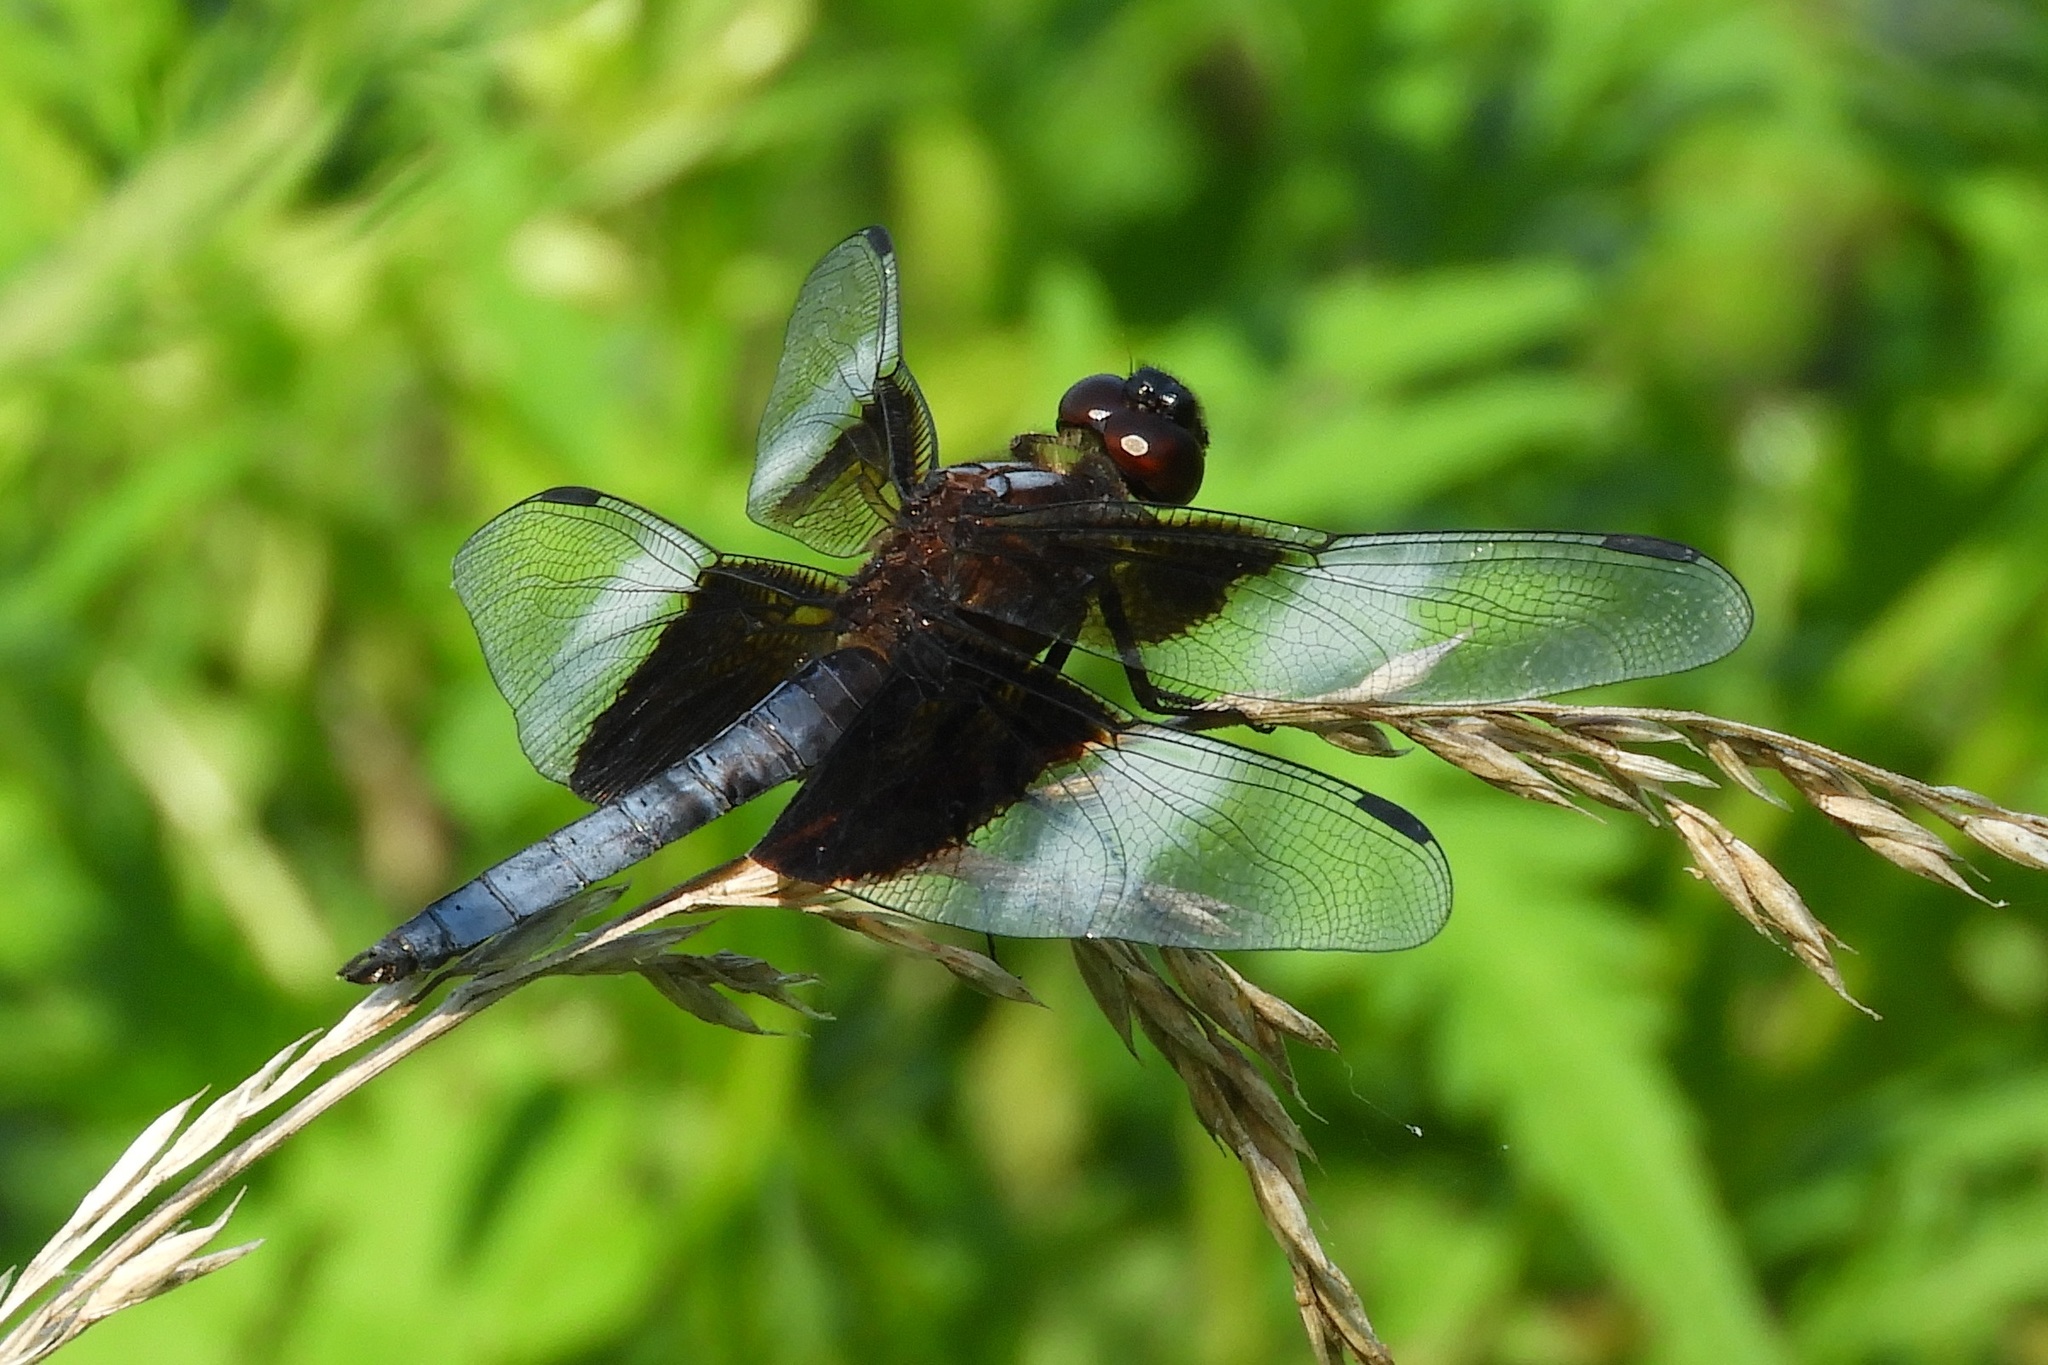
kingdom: Animalia
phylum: Arthropoda
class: Insecta
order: Odonata
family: Libellulidae
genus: Libellula
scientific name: Libellula luctuosa
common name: Widow skimmer
